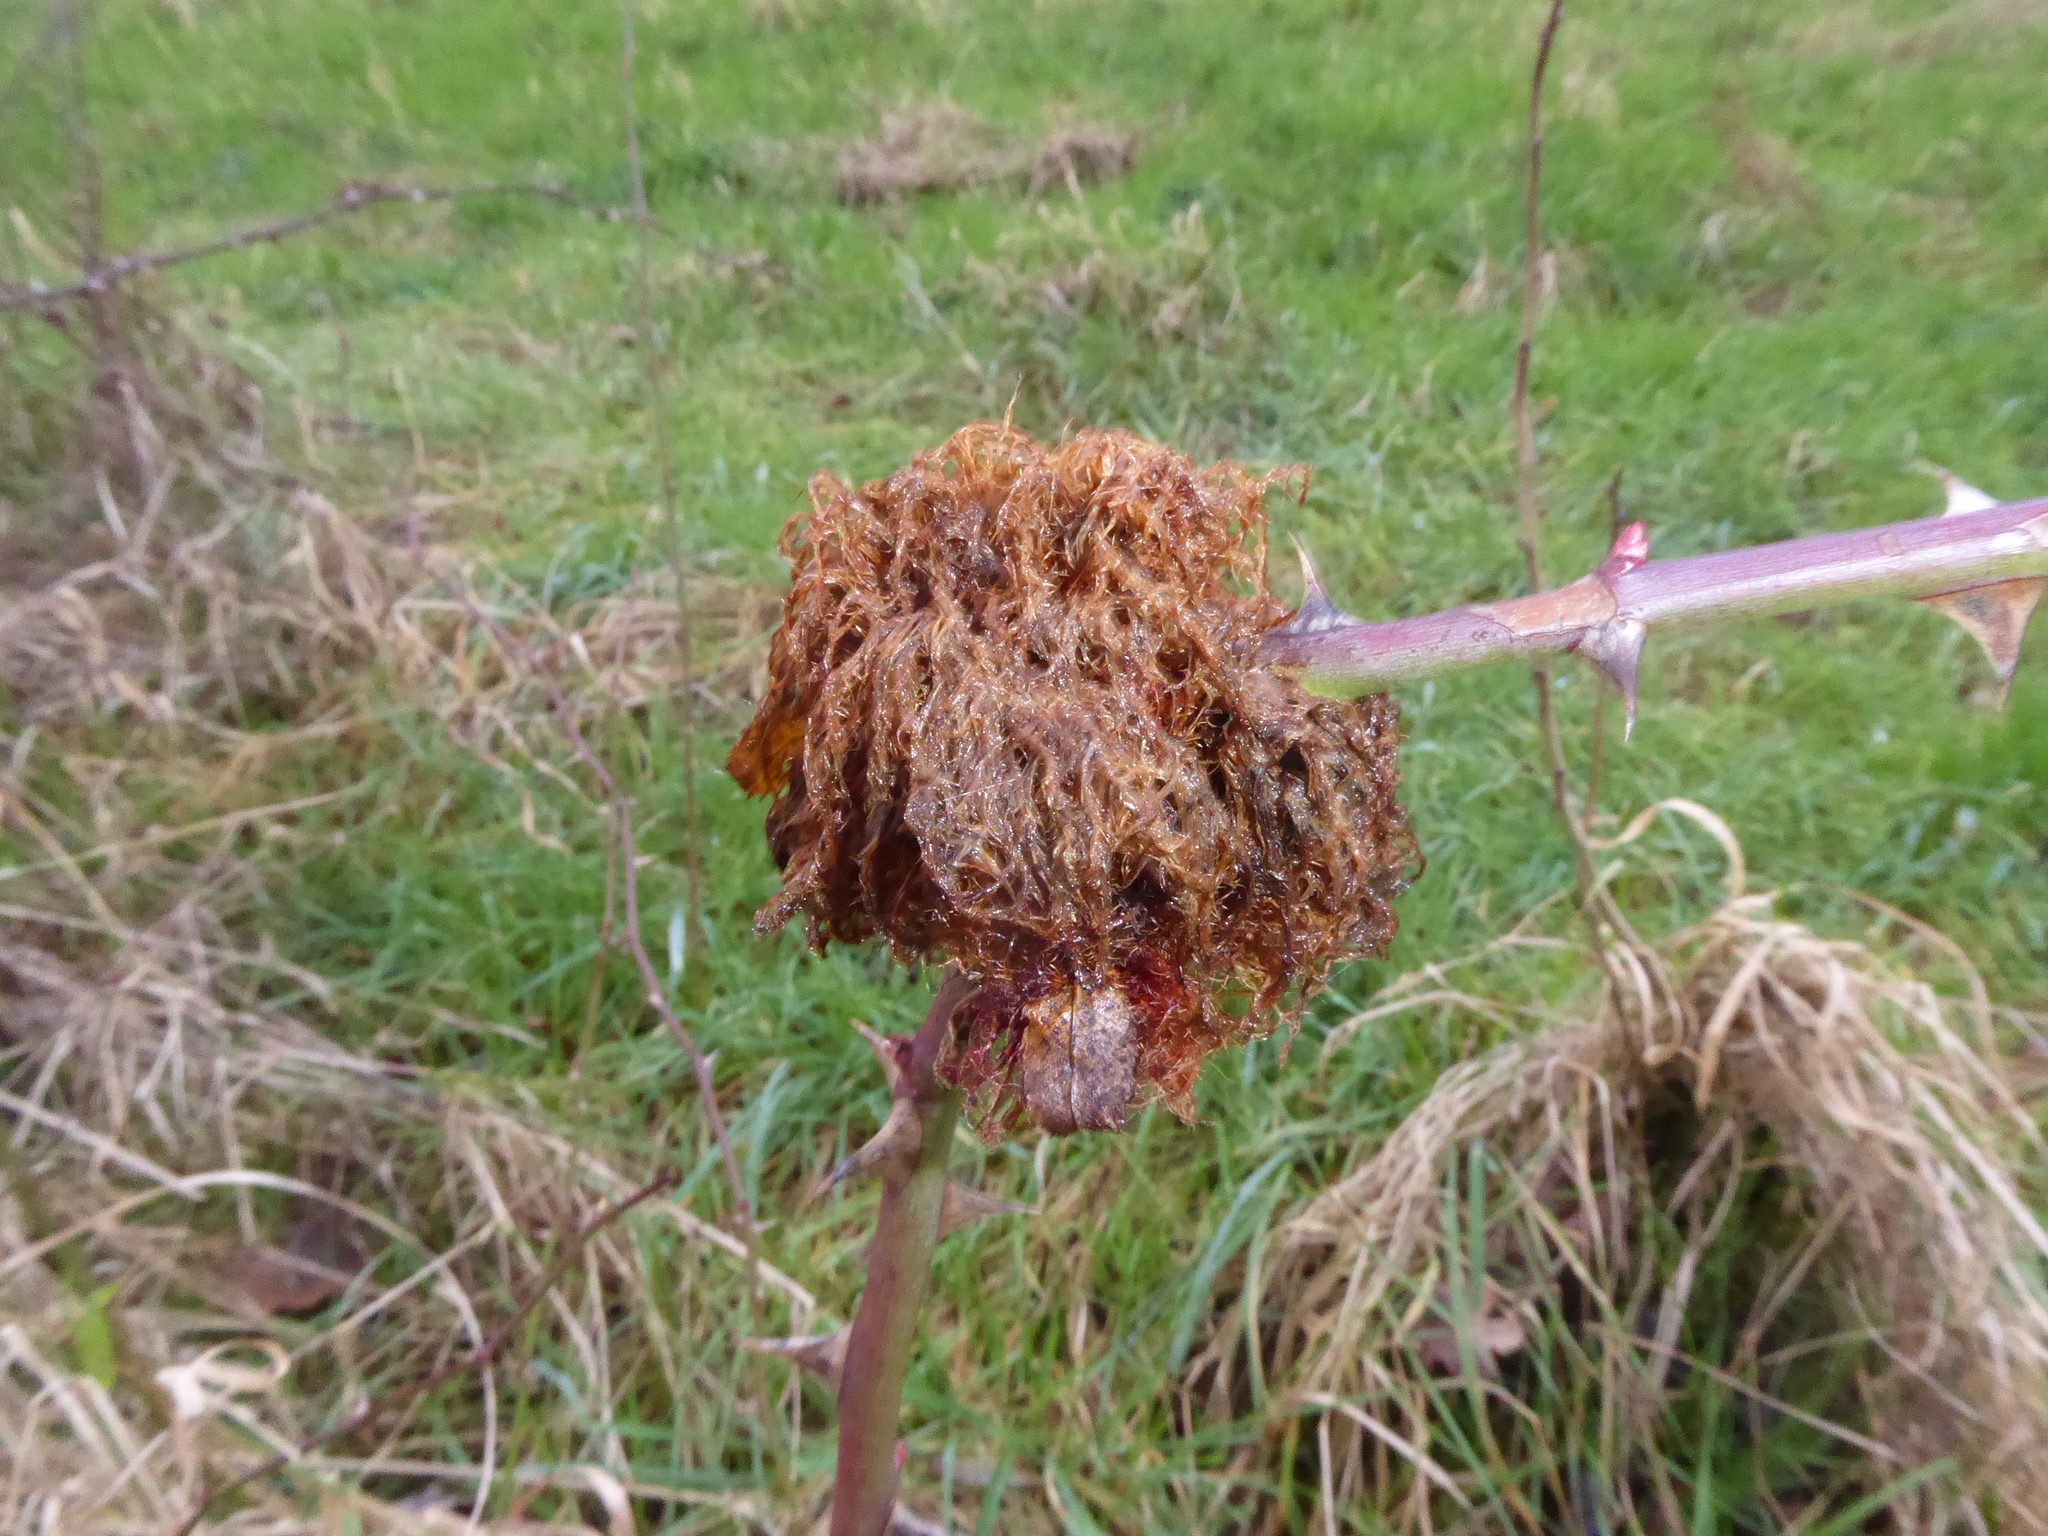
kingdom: Animalia
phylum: Arthropoda
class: Insecta
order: Hymenoptera
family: Cynipidae
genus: Diplolepis
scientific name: Diplolepis rosae
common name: Bedeguar gall
